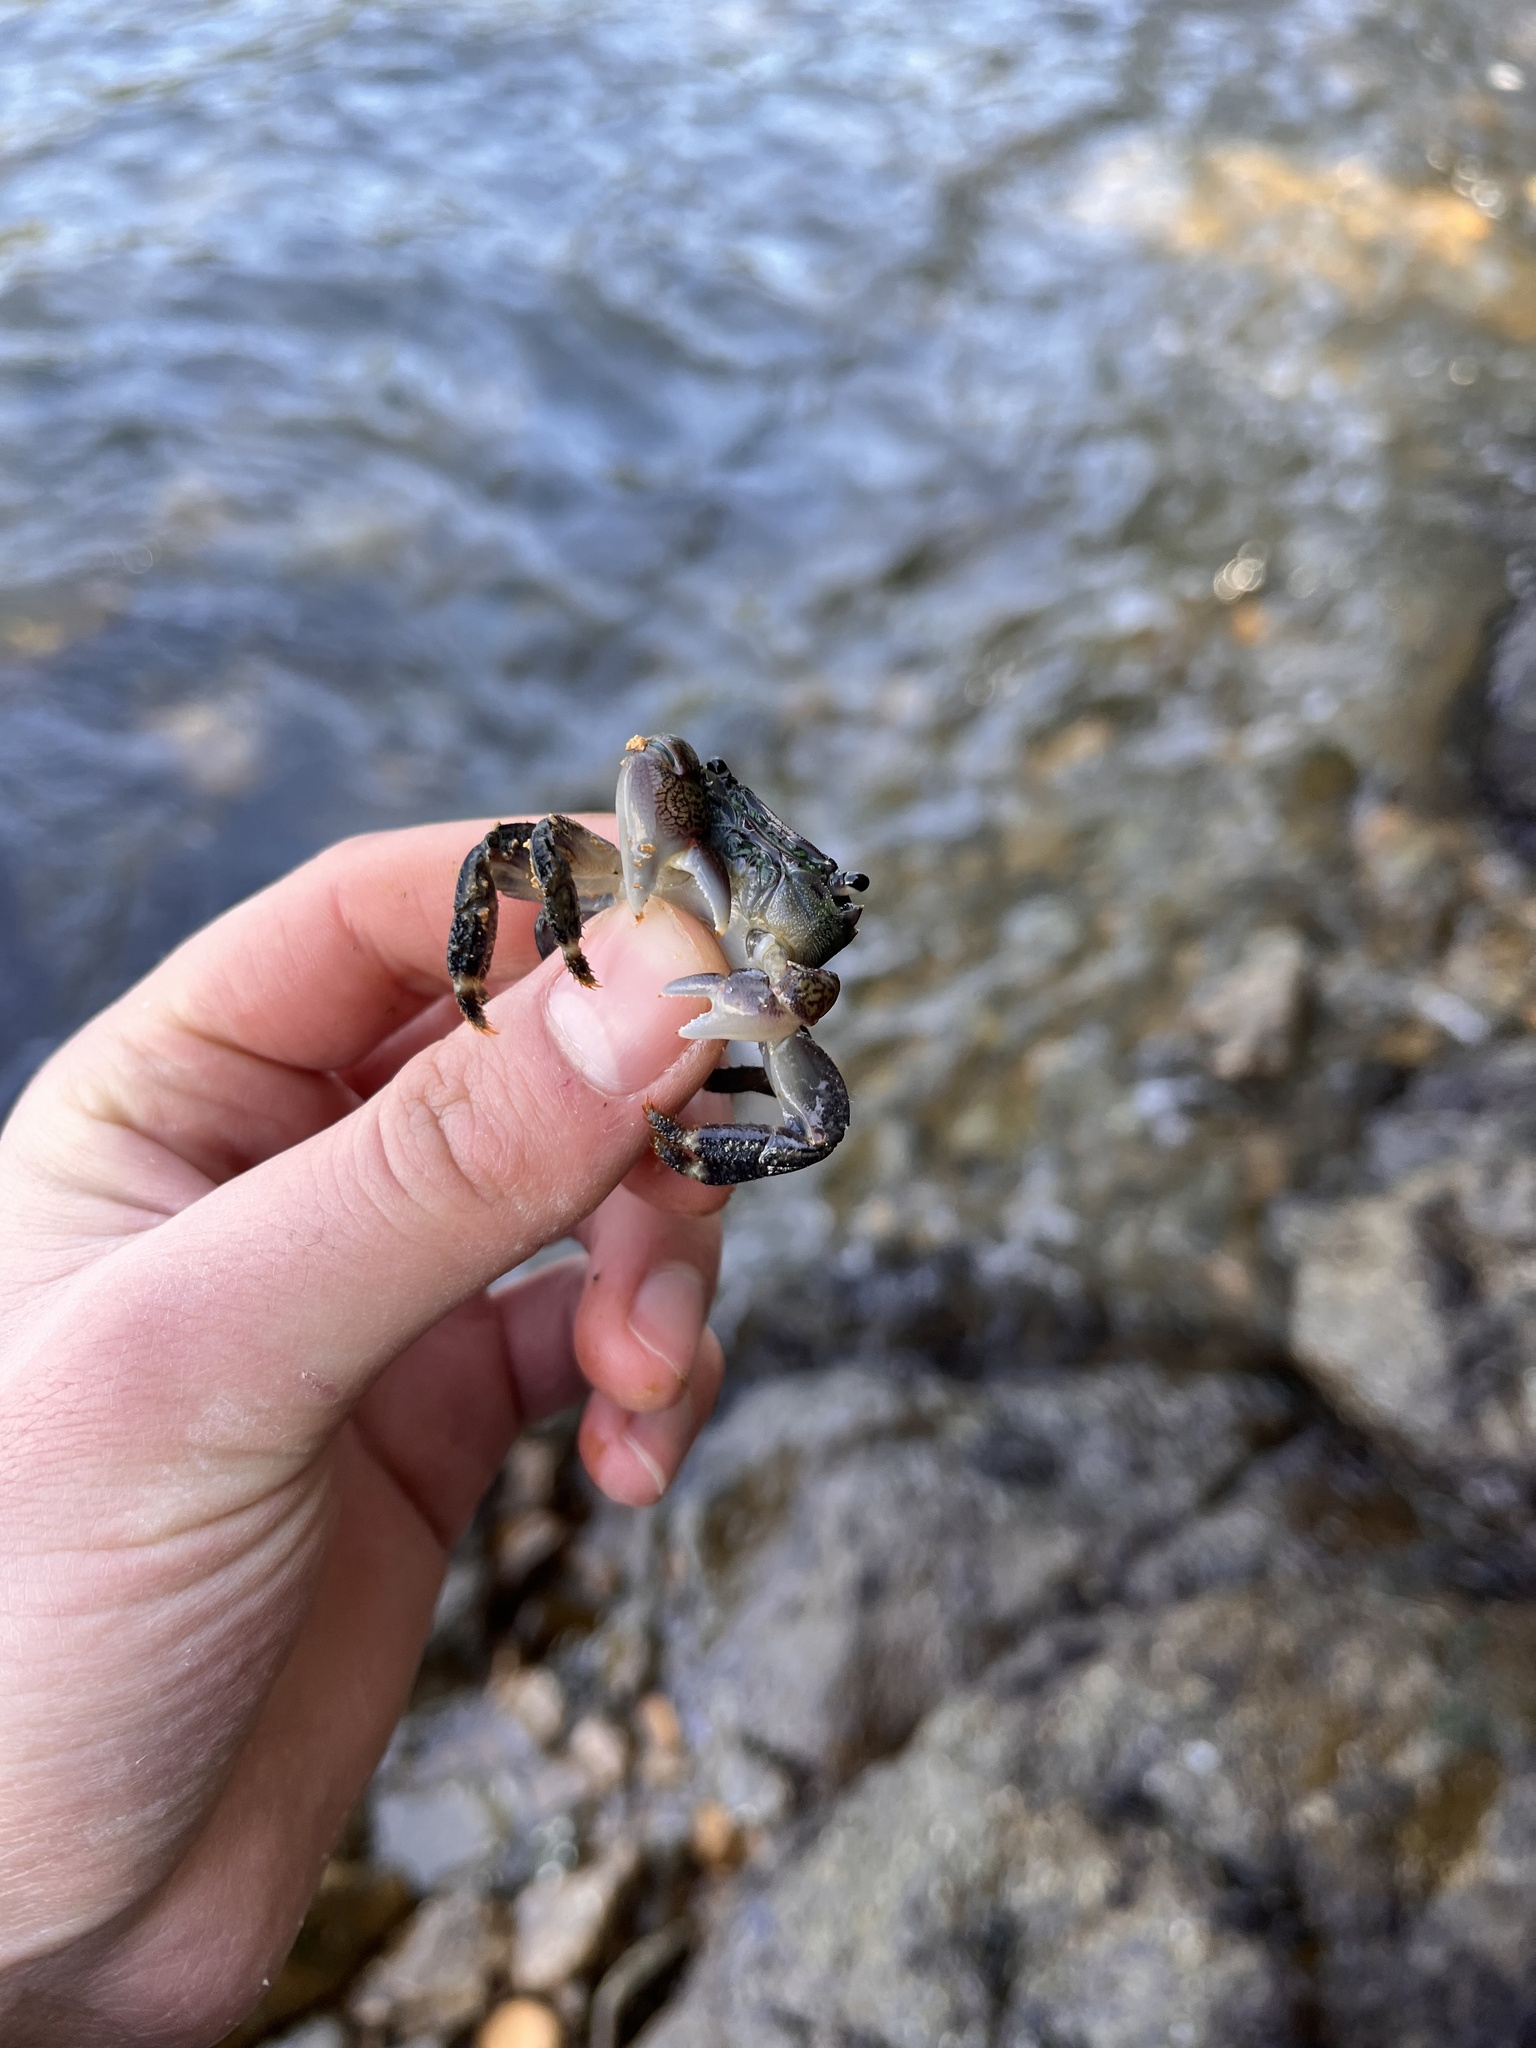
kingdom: Animalia
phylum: Arthropoda
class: Malacostraca
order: Decapoda
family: Grapsidae
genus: Pachygrapsus
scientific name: Pachygrapsus crassipes
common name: Striped shore crab
